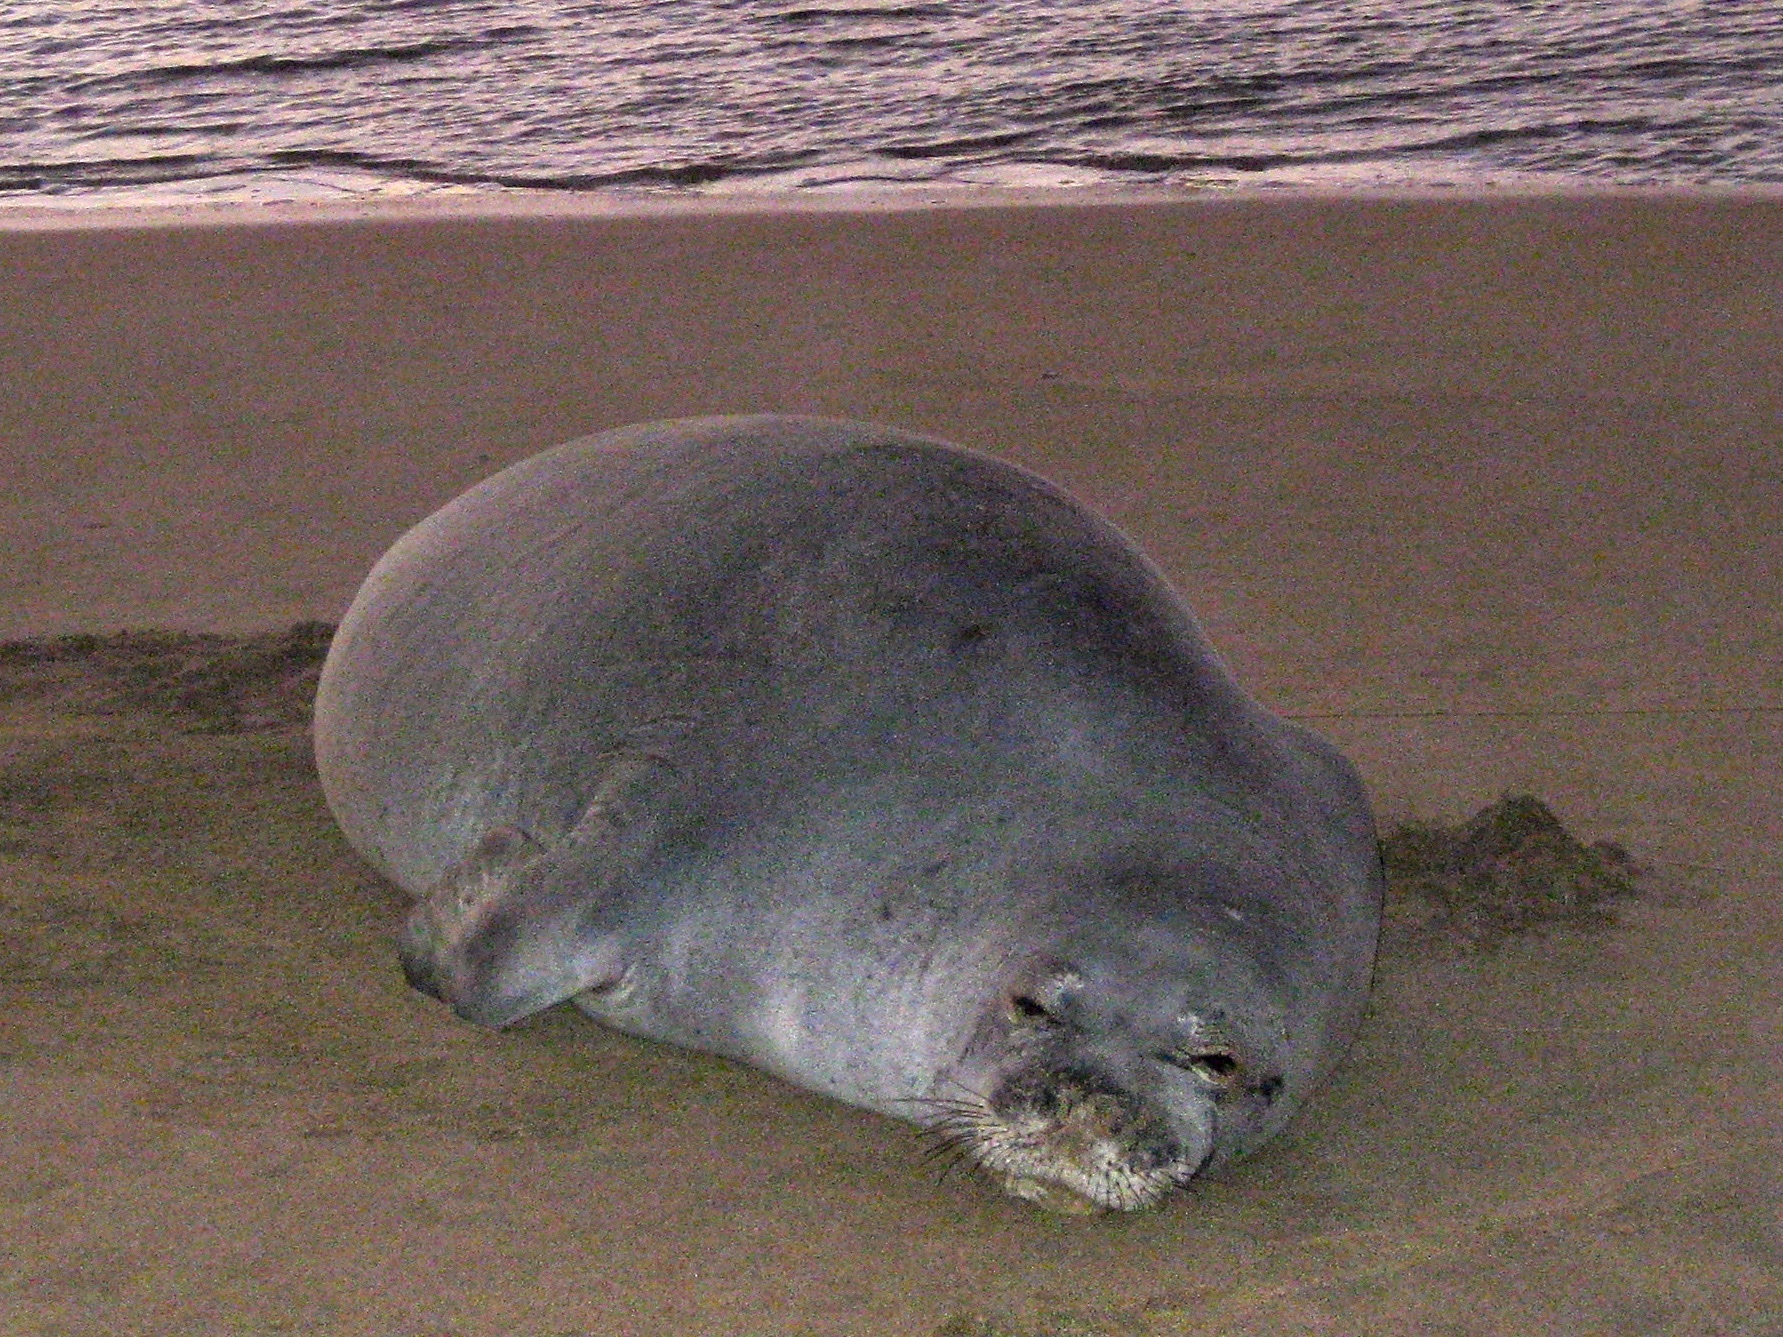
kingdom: Animalia
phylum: Chordata
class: Mammalia
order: Carnivora
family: Phocidae
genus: Neomonachus
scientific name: Neomonachus schauinslandi
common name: Hawaiian monk seal
